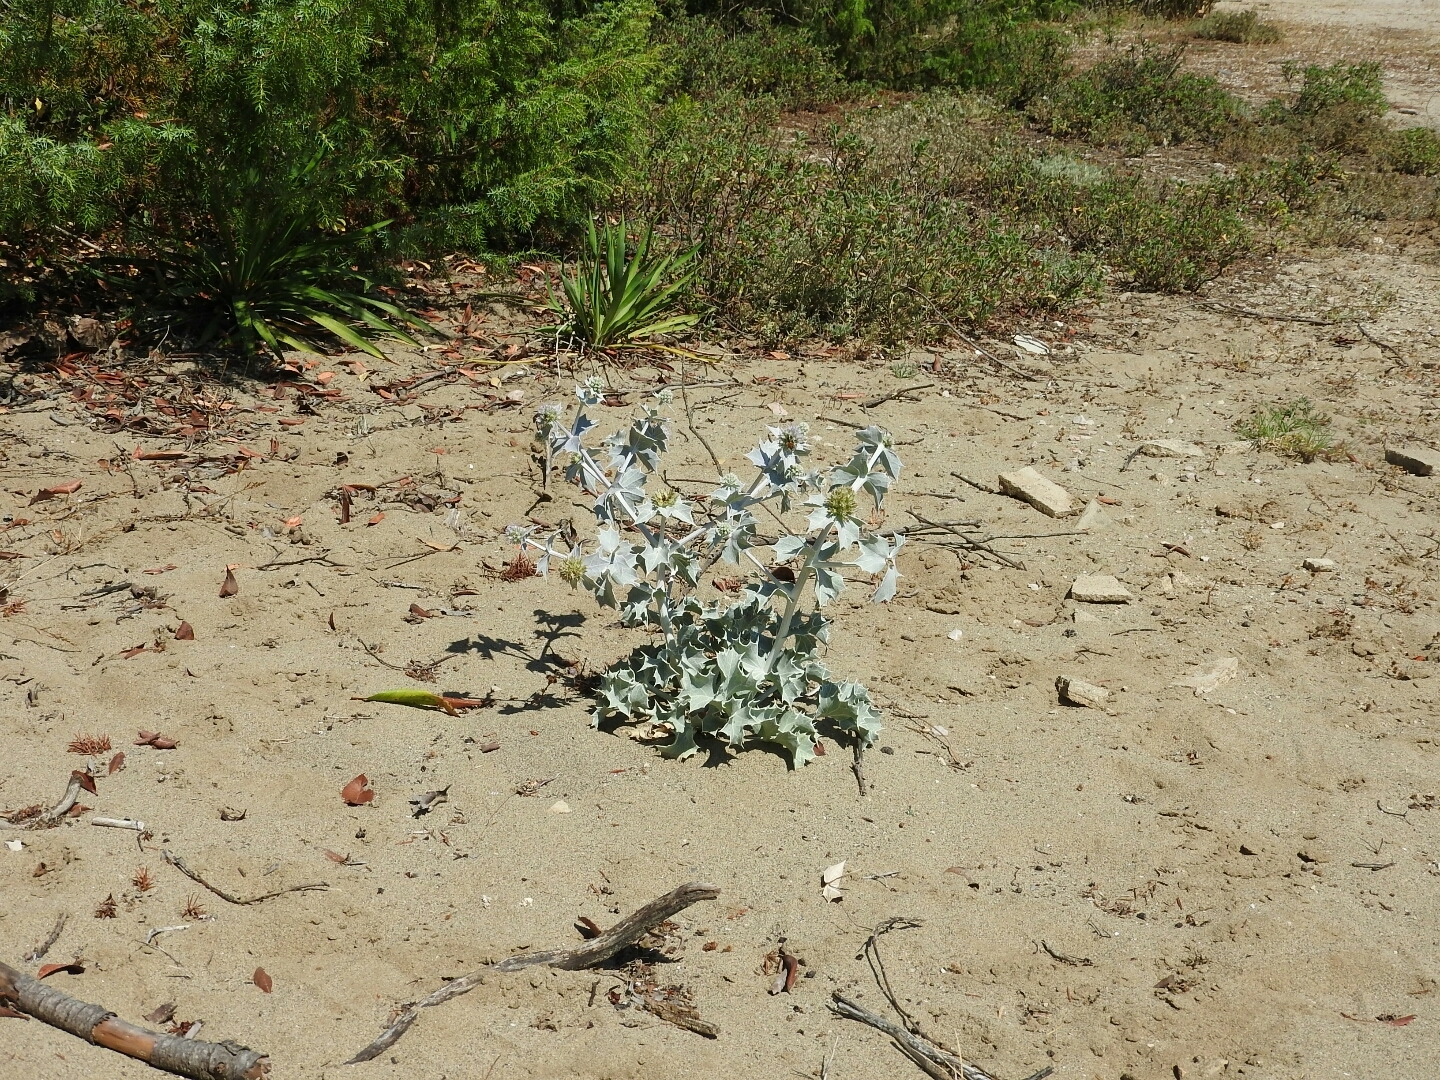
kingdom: Plantae
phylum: Tracheophyta
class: Magnoliopsida
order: Apiales
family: Apiaceae
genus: Eryngium
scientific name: Eryngium maritimum
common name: Sea-holly
